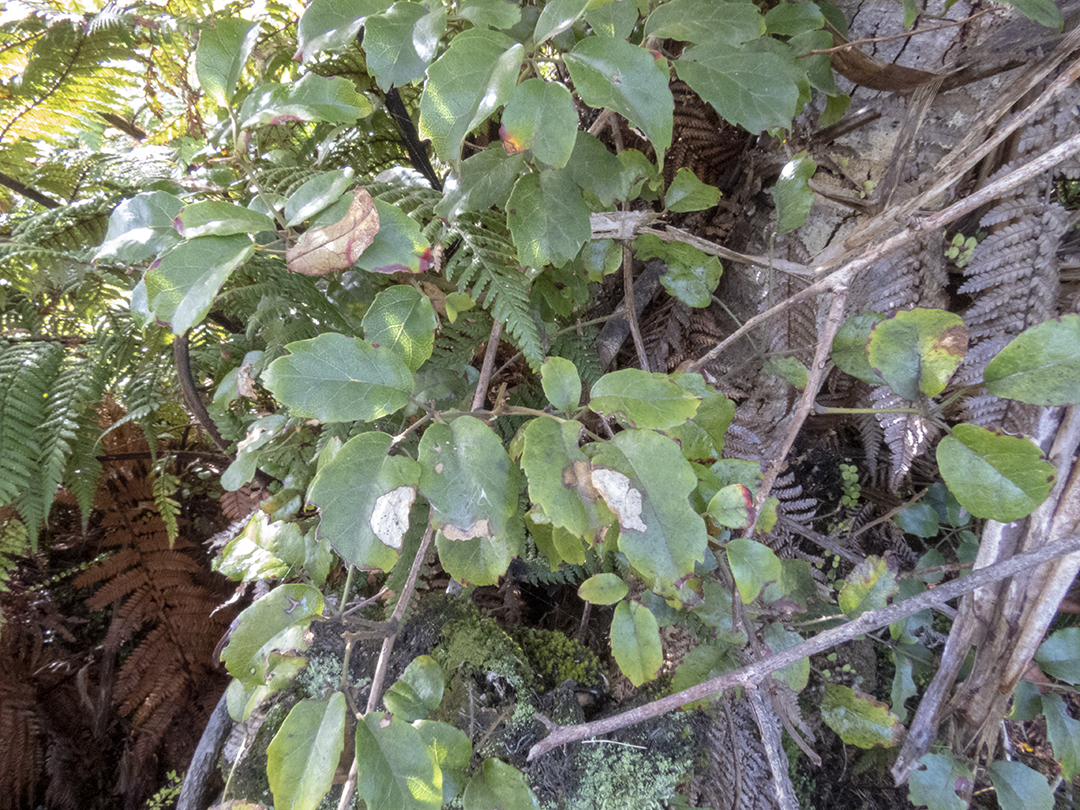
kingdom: Plantae
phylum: Tracheophyta
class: Magnoliopsida
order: Rosales
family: Rosaceae
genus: Rubus
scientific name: Rubus australis
